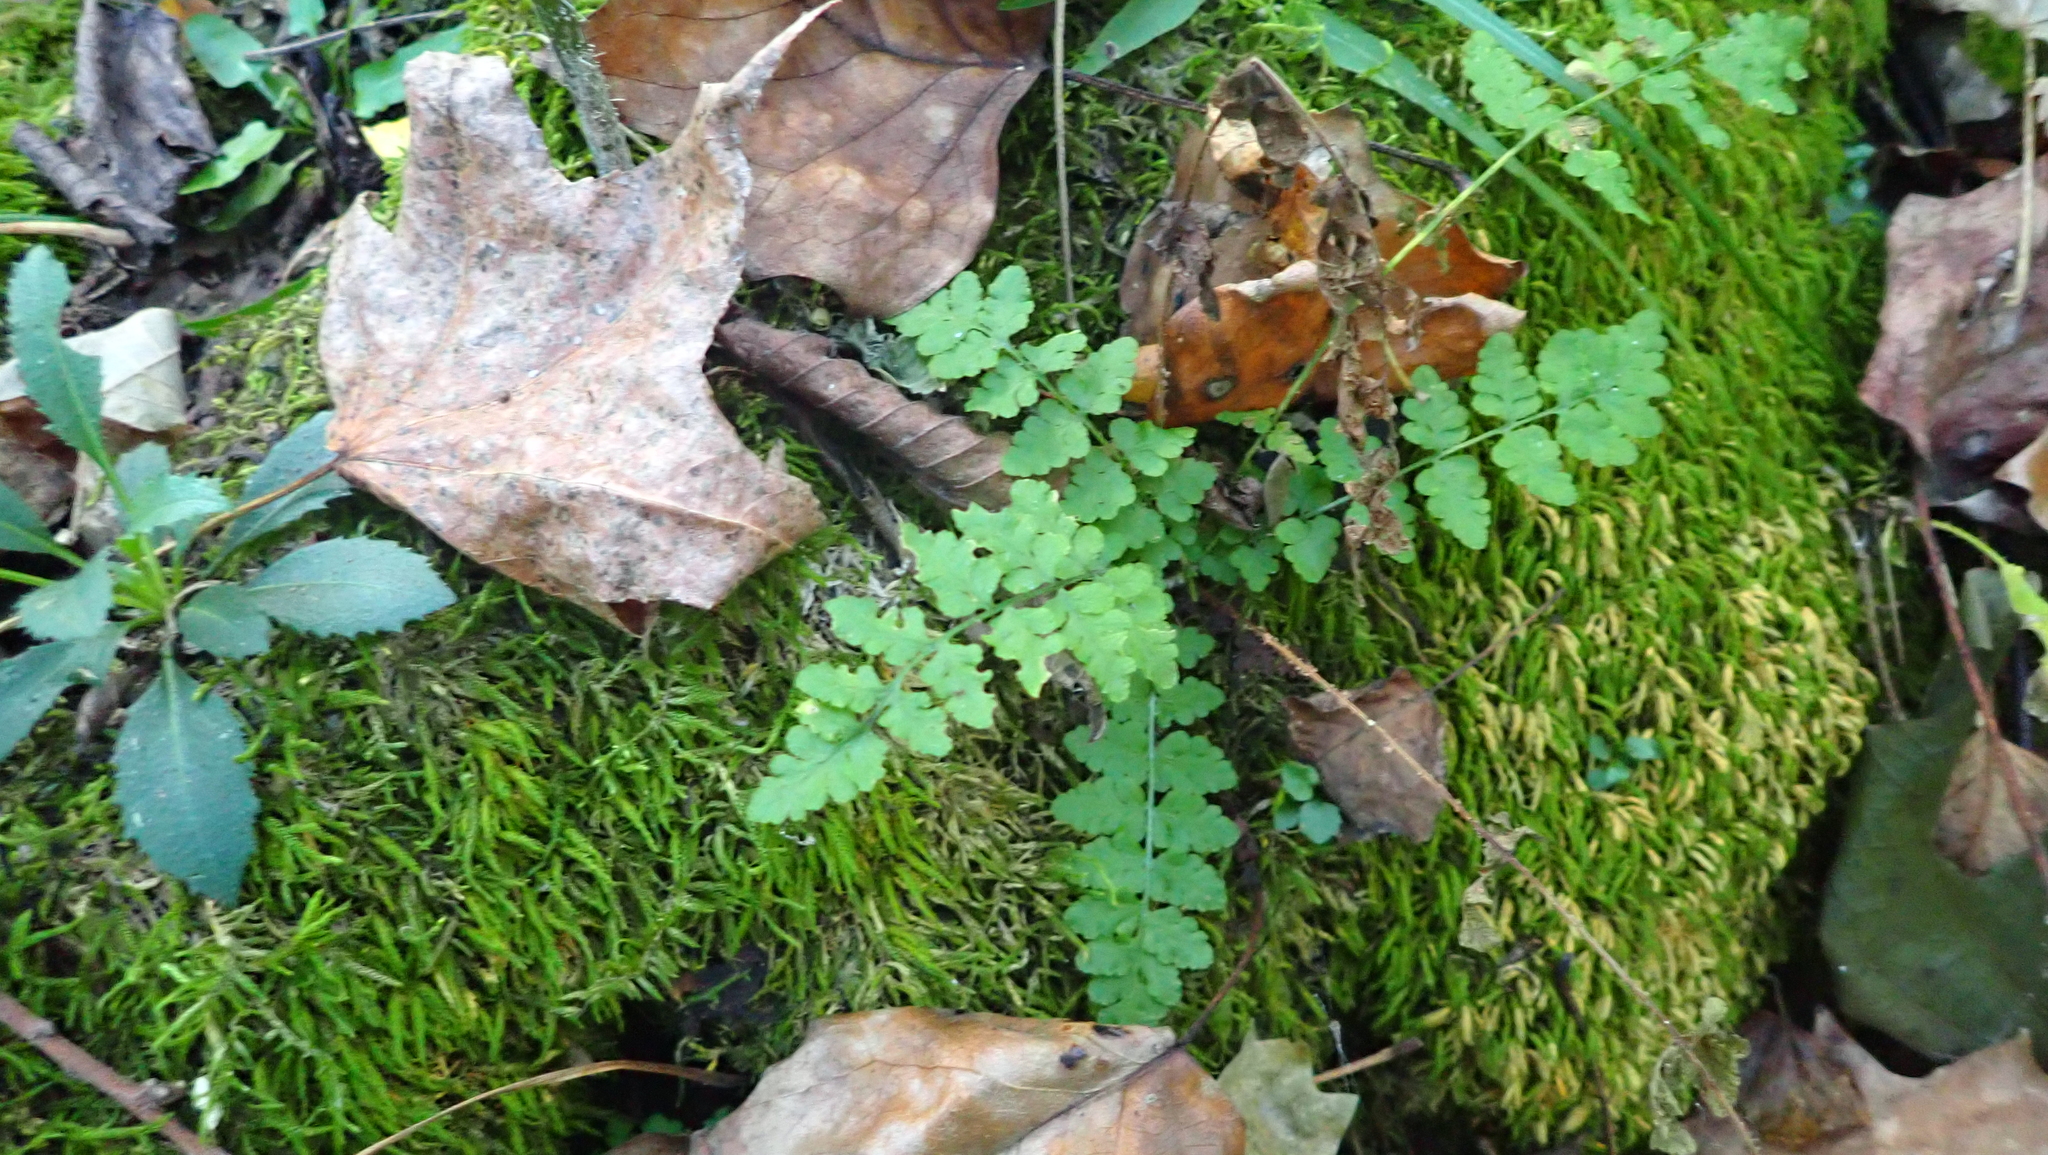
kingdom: Plantae
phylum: Tracheophyta
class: Polypodiopsida
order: Polypodiales
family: Woodsiaceae
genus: Physematium
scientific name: Physematium obtusum
